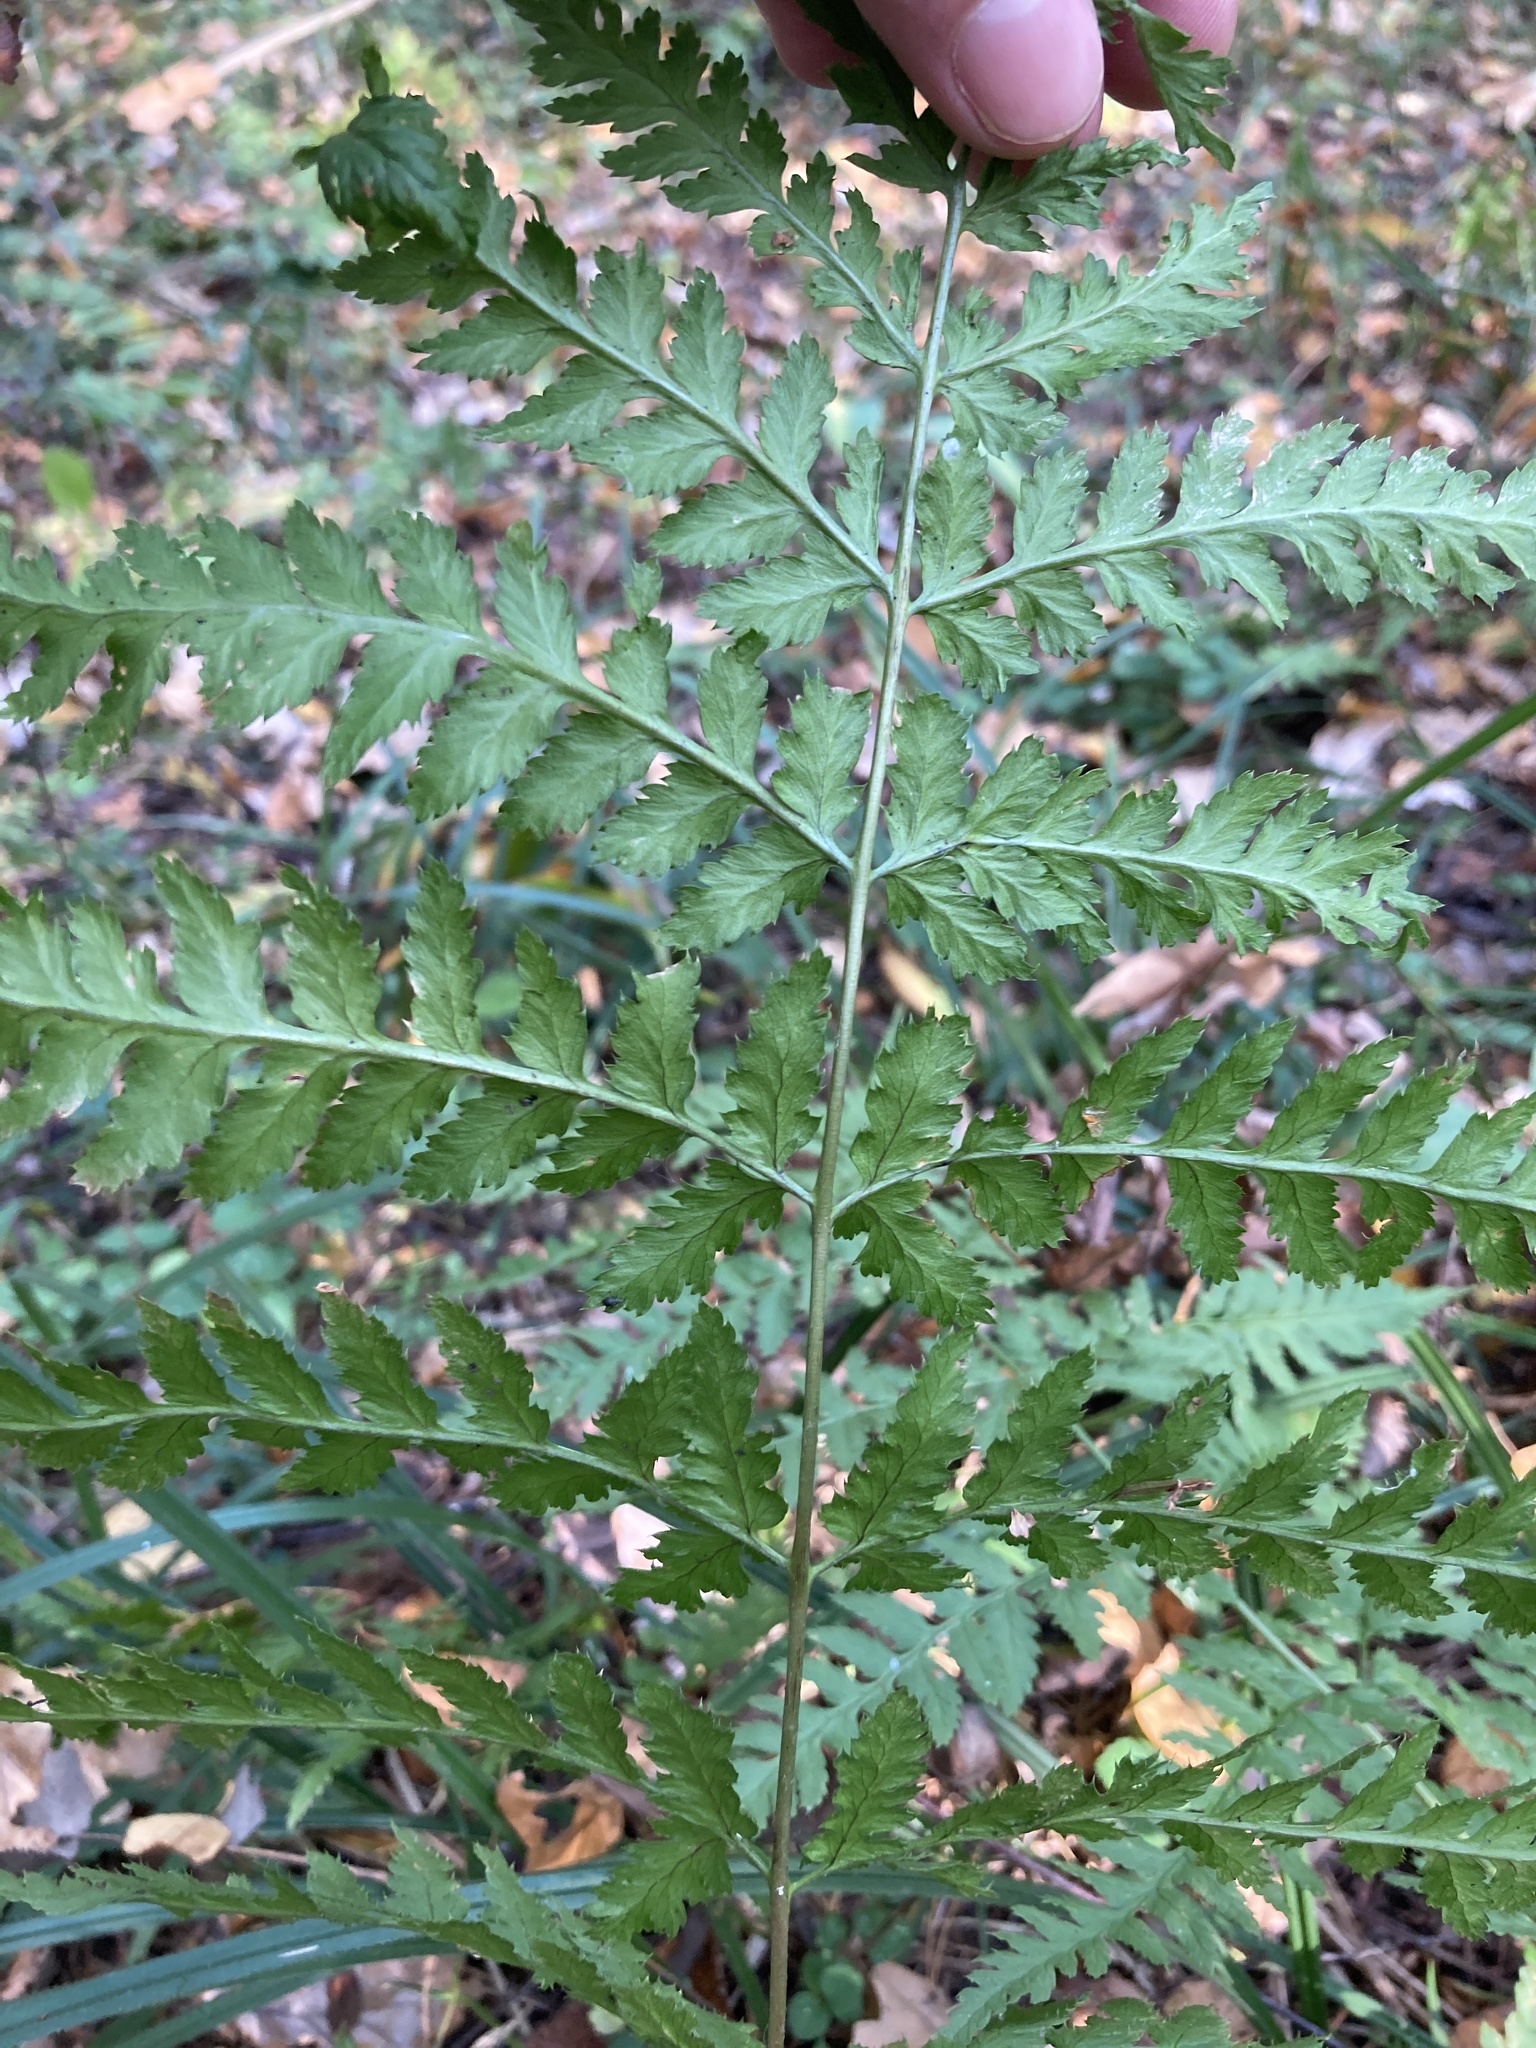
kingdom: Plantae
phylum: Tracheophyta
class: Polypodiopsida
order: Polypodiales
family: Dryopteridaceae
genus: Dryopteris
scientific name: Dryopteris carthusiana
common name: Narrow buckler-fern
